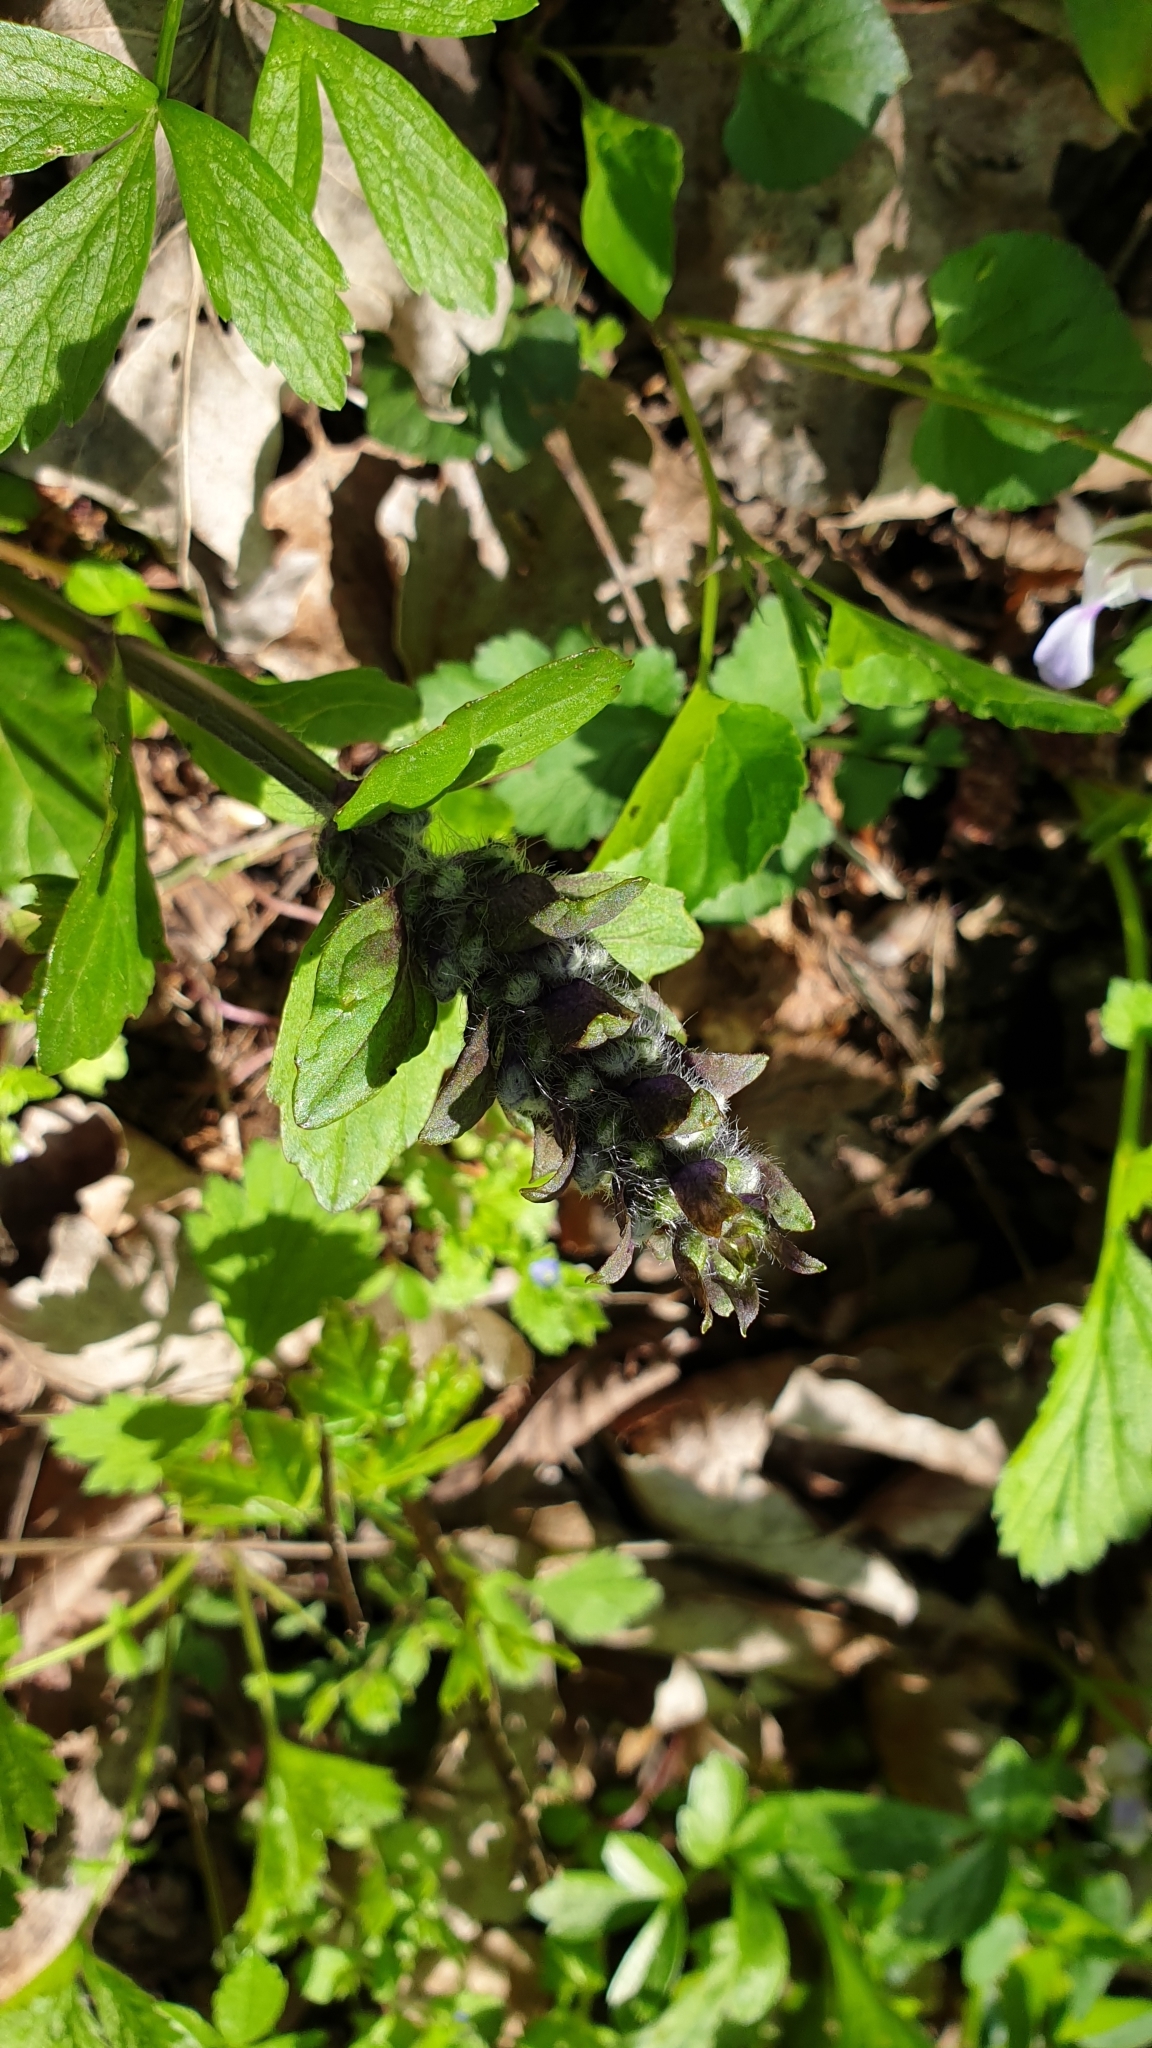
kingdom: Plantae
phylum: Tracheophyta
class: Magnoliopsida
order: Lamiales
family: Lamiaceae
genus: Ajuga
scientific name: Ajuga reptans
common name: Bugle
